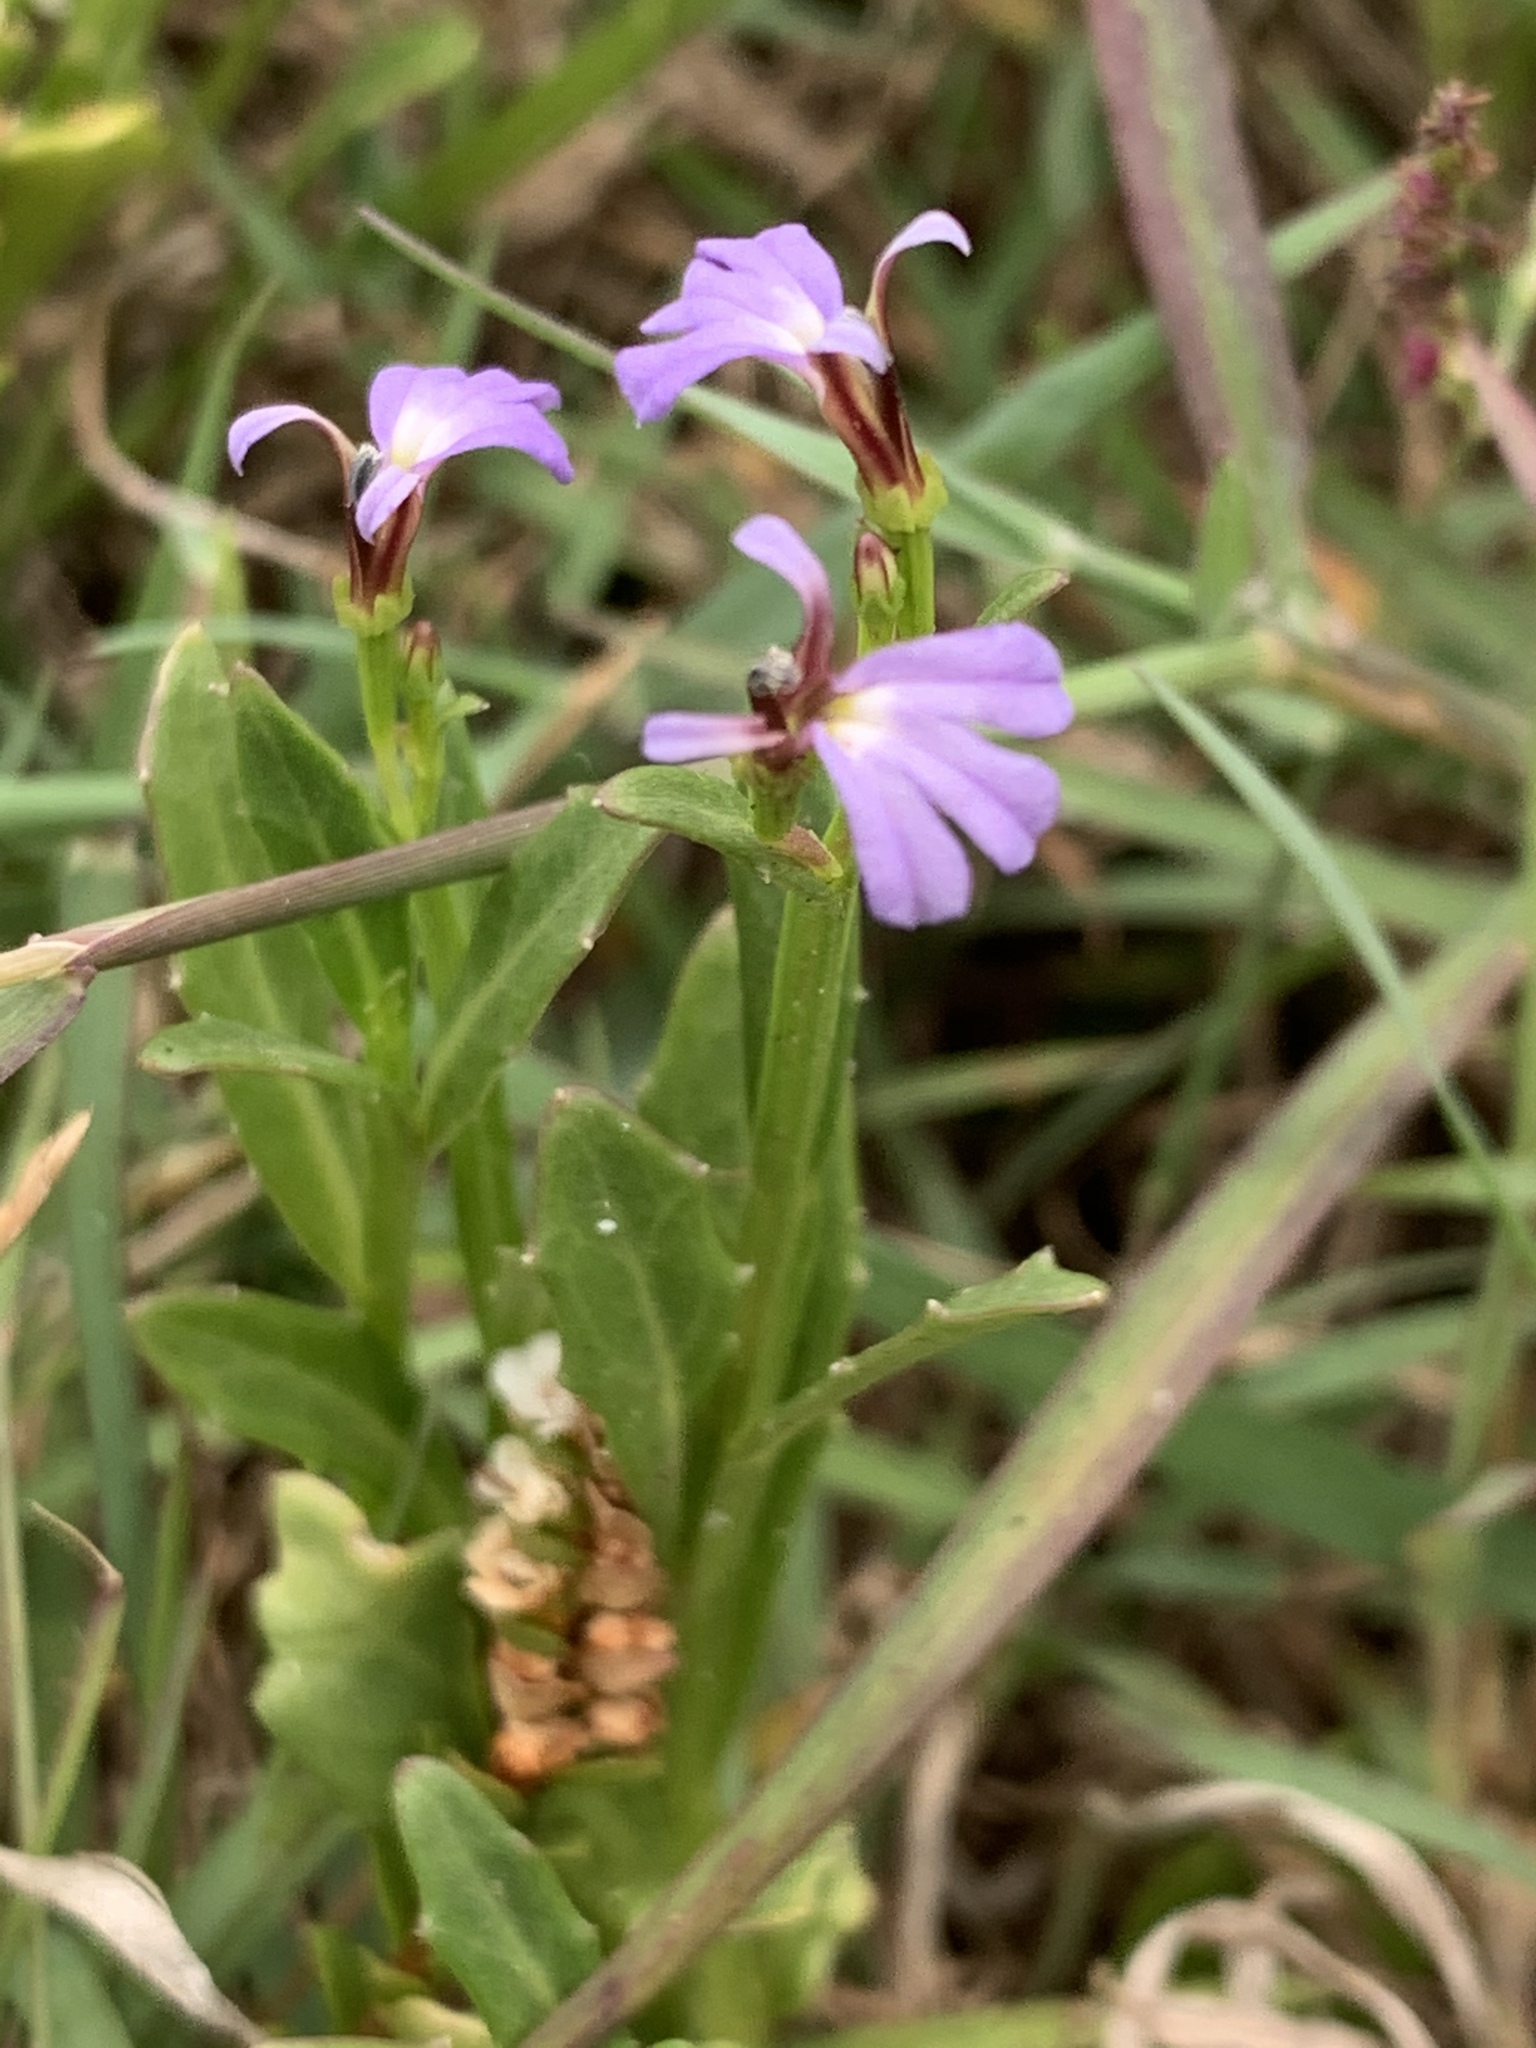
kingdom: Plantae
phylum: Tracheophyta
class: Magnoliopsida
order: Asterales
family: Campanulaceae
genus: Lobelia
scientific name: Lobelia anceps
